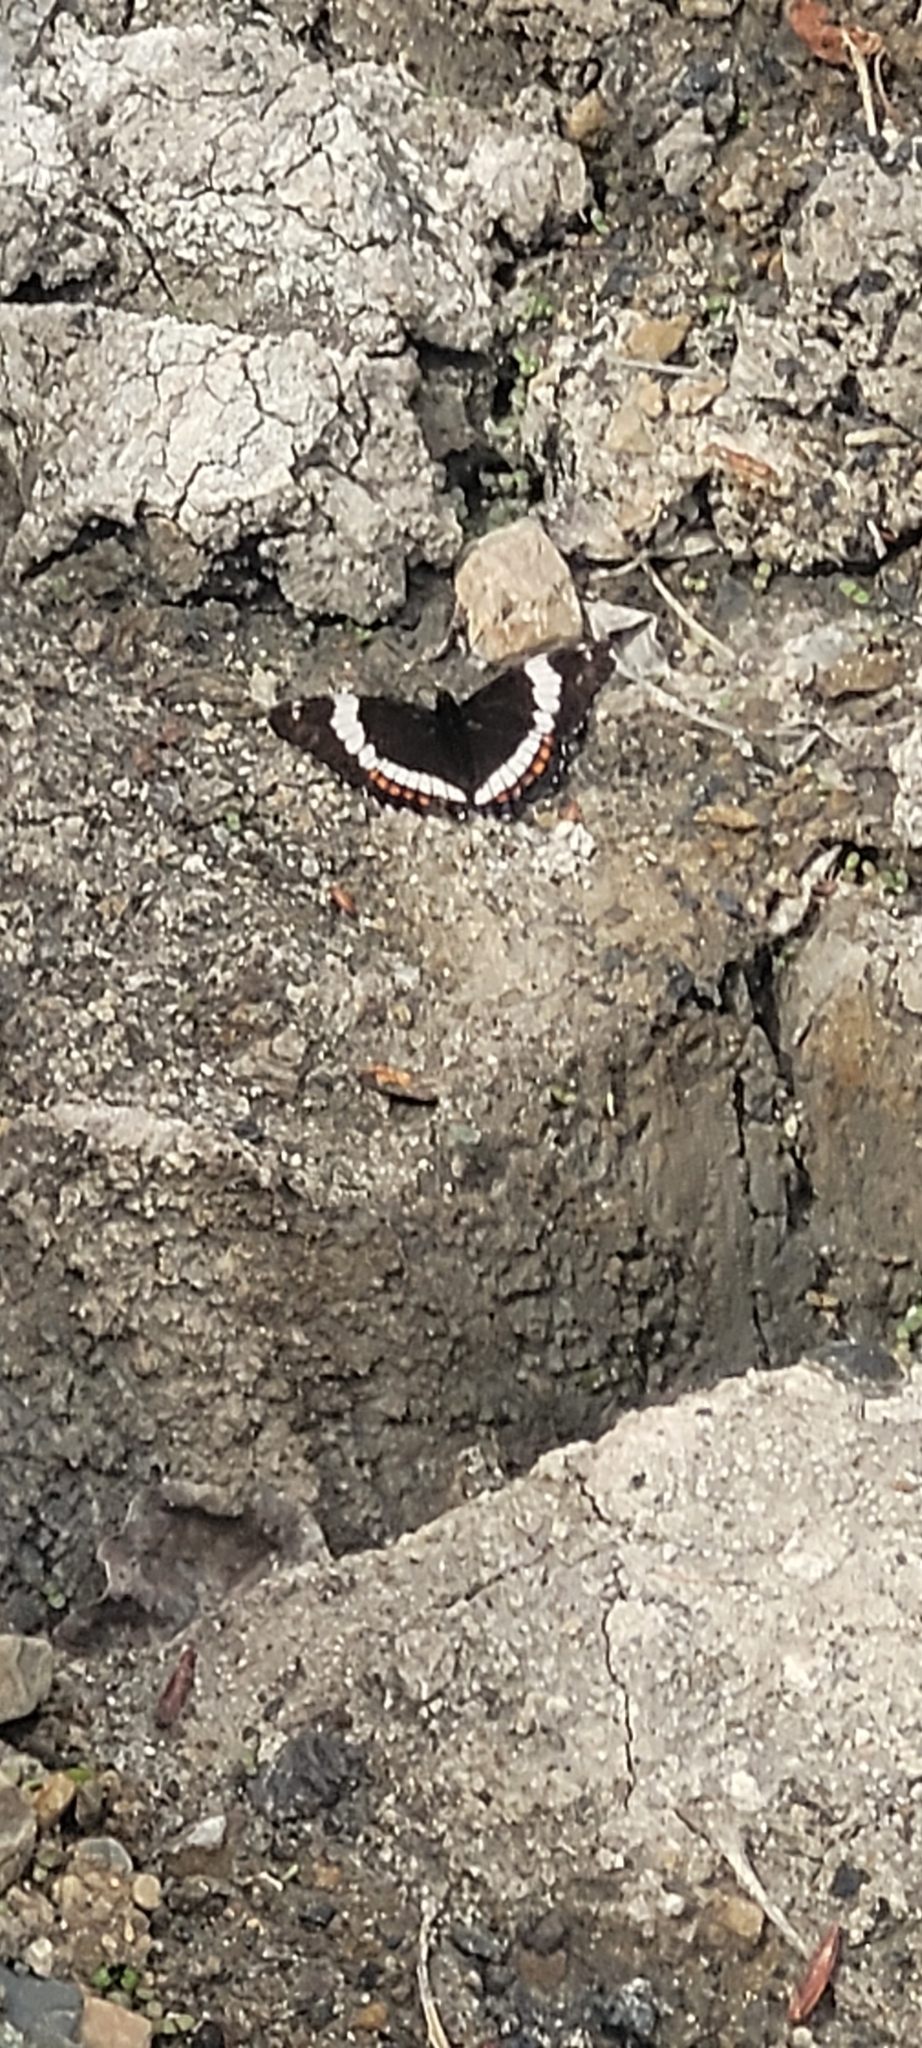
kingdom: Animalia
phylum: Arthropoda
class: Insecta
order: Lepidoptera
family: Nymphalidae
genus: Limenitis
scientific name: Limenitis arthemis
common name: Red-spotted admiral
